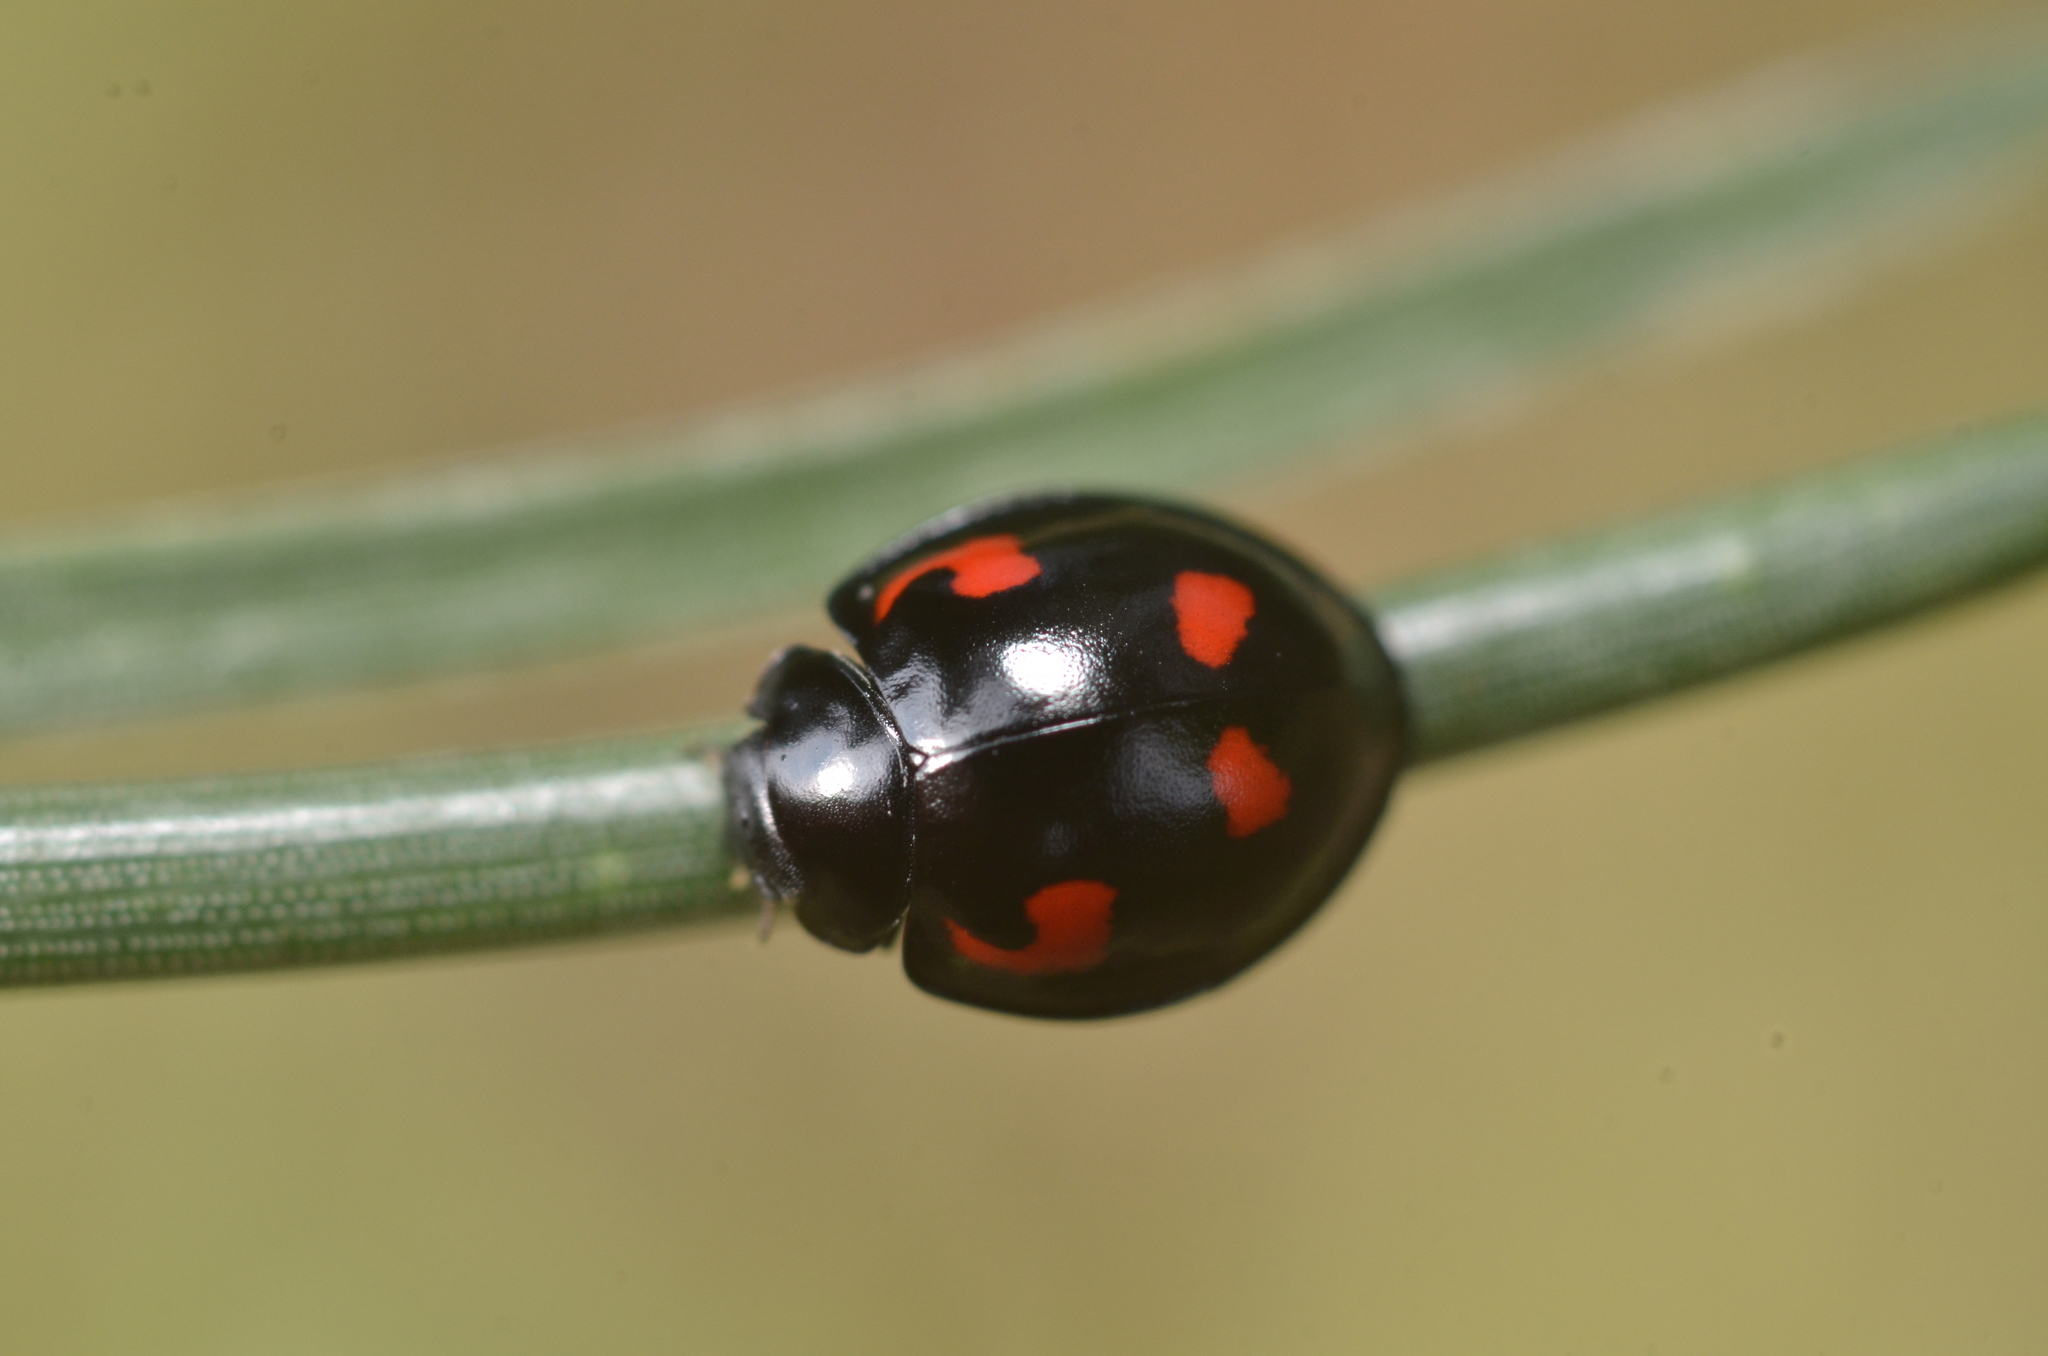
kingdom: Animalia
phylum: Arthropoda
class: Insecta
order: Coleoptera
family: Coccinellidae
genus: Brumus
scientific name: Brumus quadripustulatus
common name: Ladybird beetle
